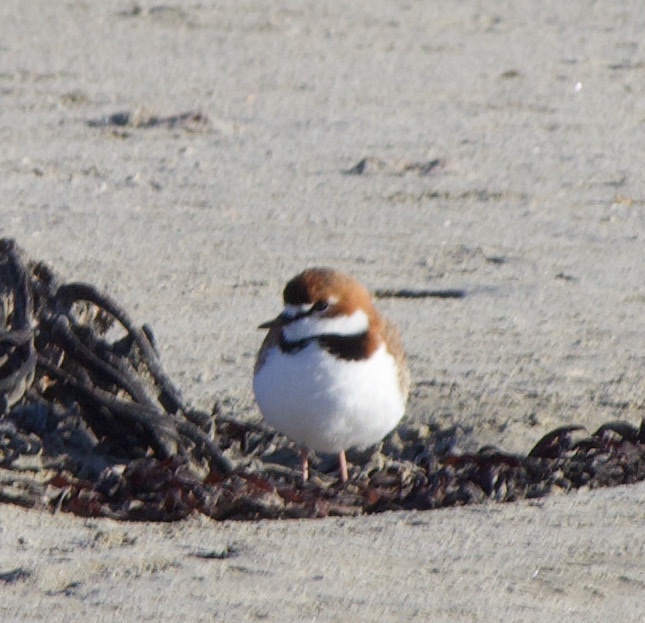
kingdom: Animalia
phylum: Chordata
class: Aves
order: Charadriiformes
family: Charadriidae
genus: Anarhynchus
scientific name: Anarhynchus
